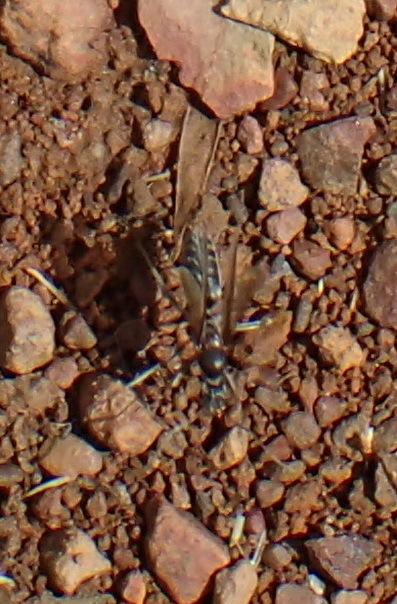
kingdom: Animalia
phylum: Arthropoda
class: Insecta
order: Hymenoptera
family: Formicidae
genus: Anoplolepis
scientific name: Anoplolepis custodiens
